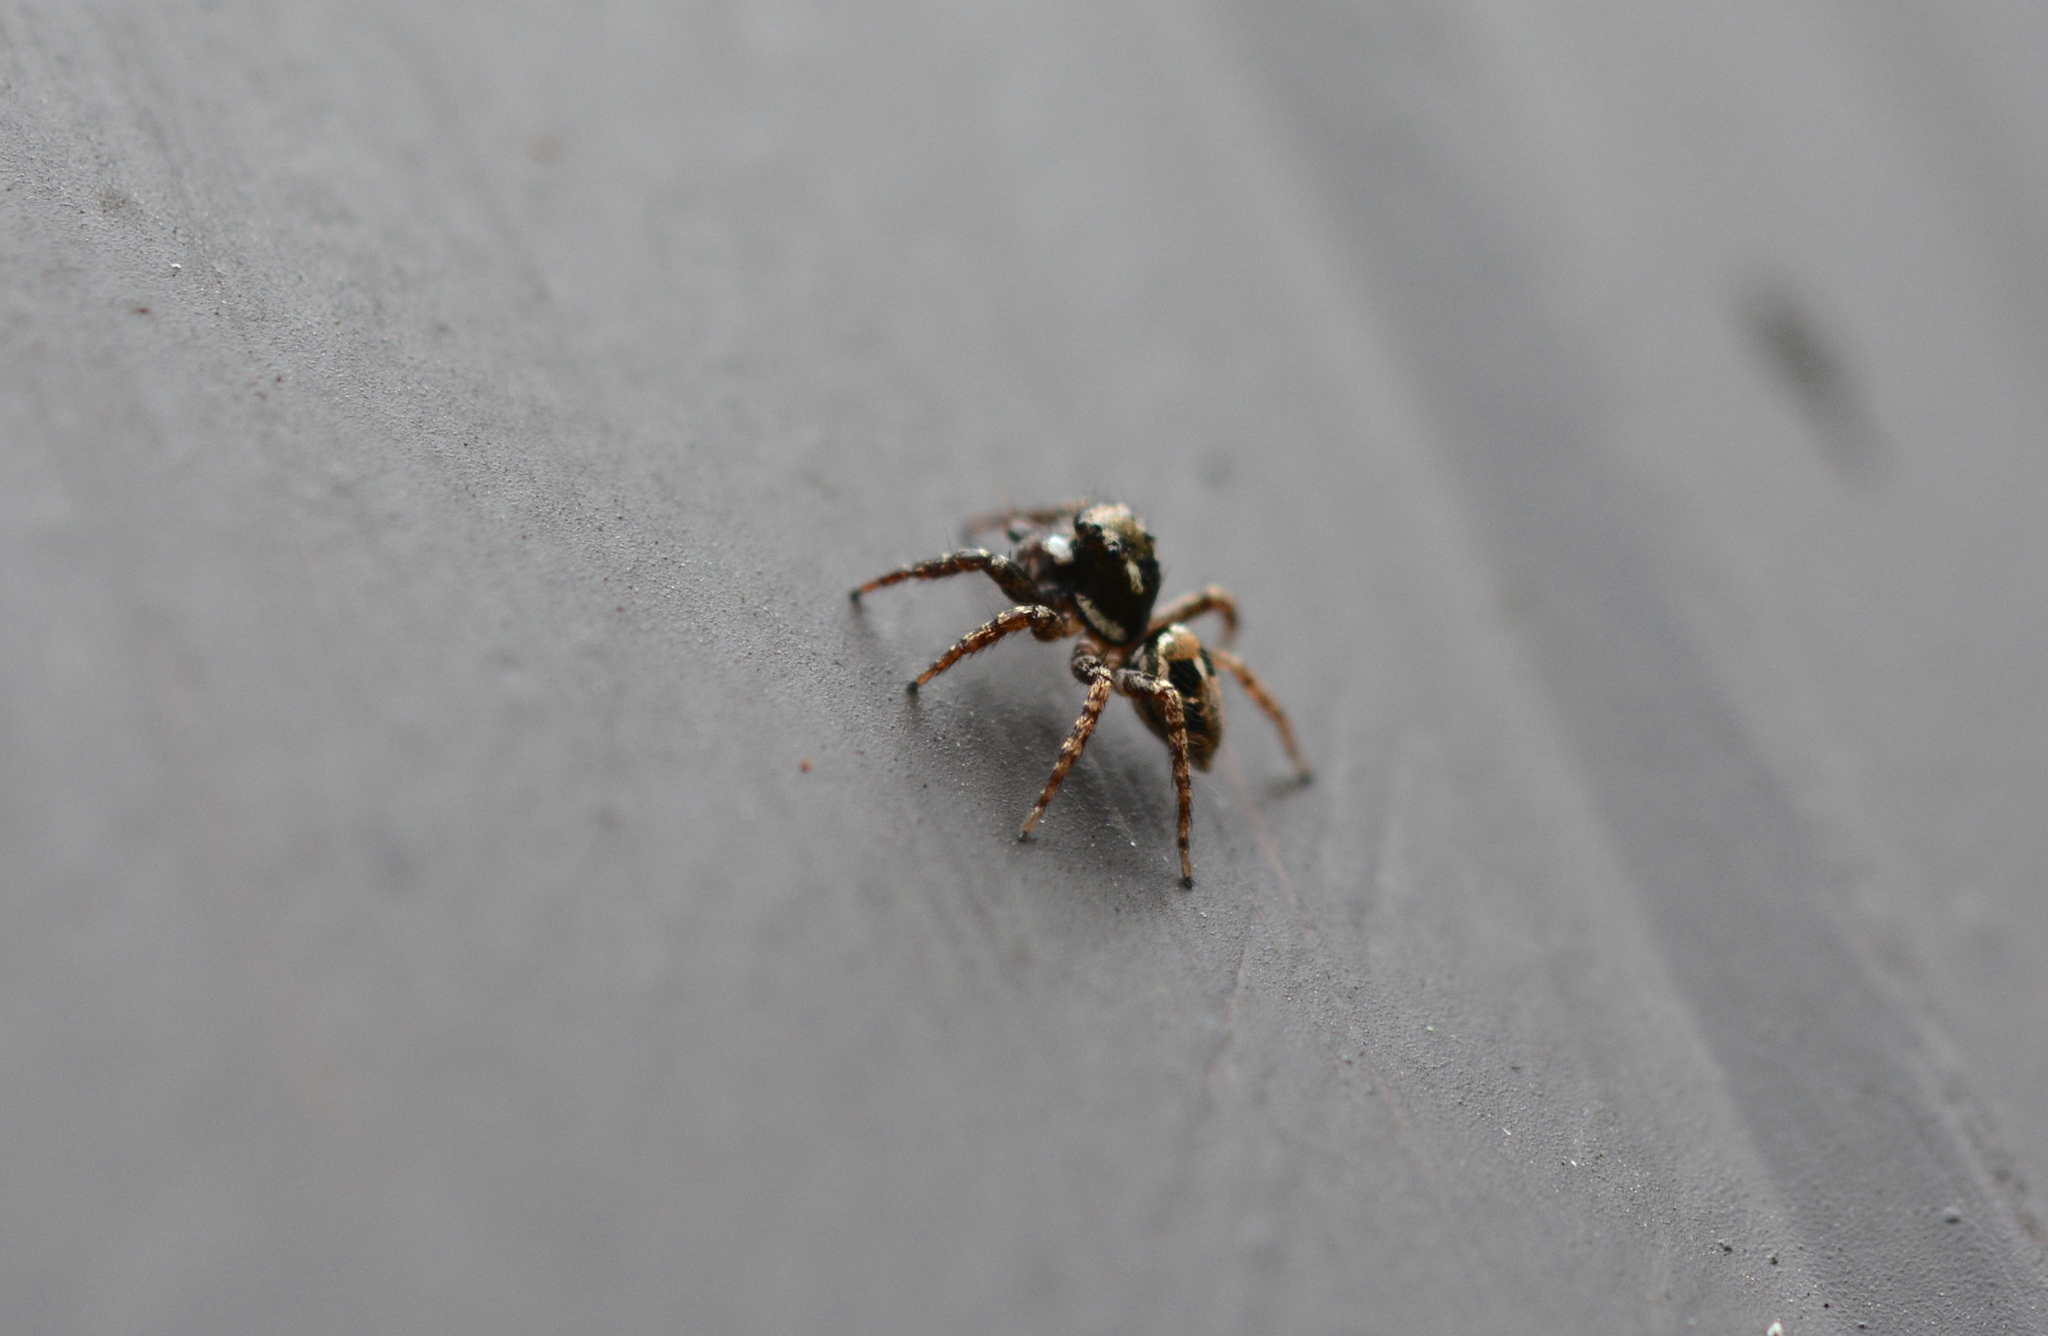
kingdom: Animalia
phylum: Arthropoda
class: Arachnida
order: Araneae
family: Salticidae
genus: Anasaitis
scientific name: Anasaitis canosa
